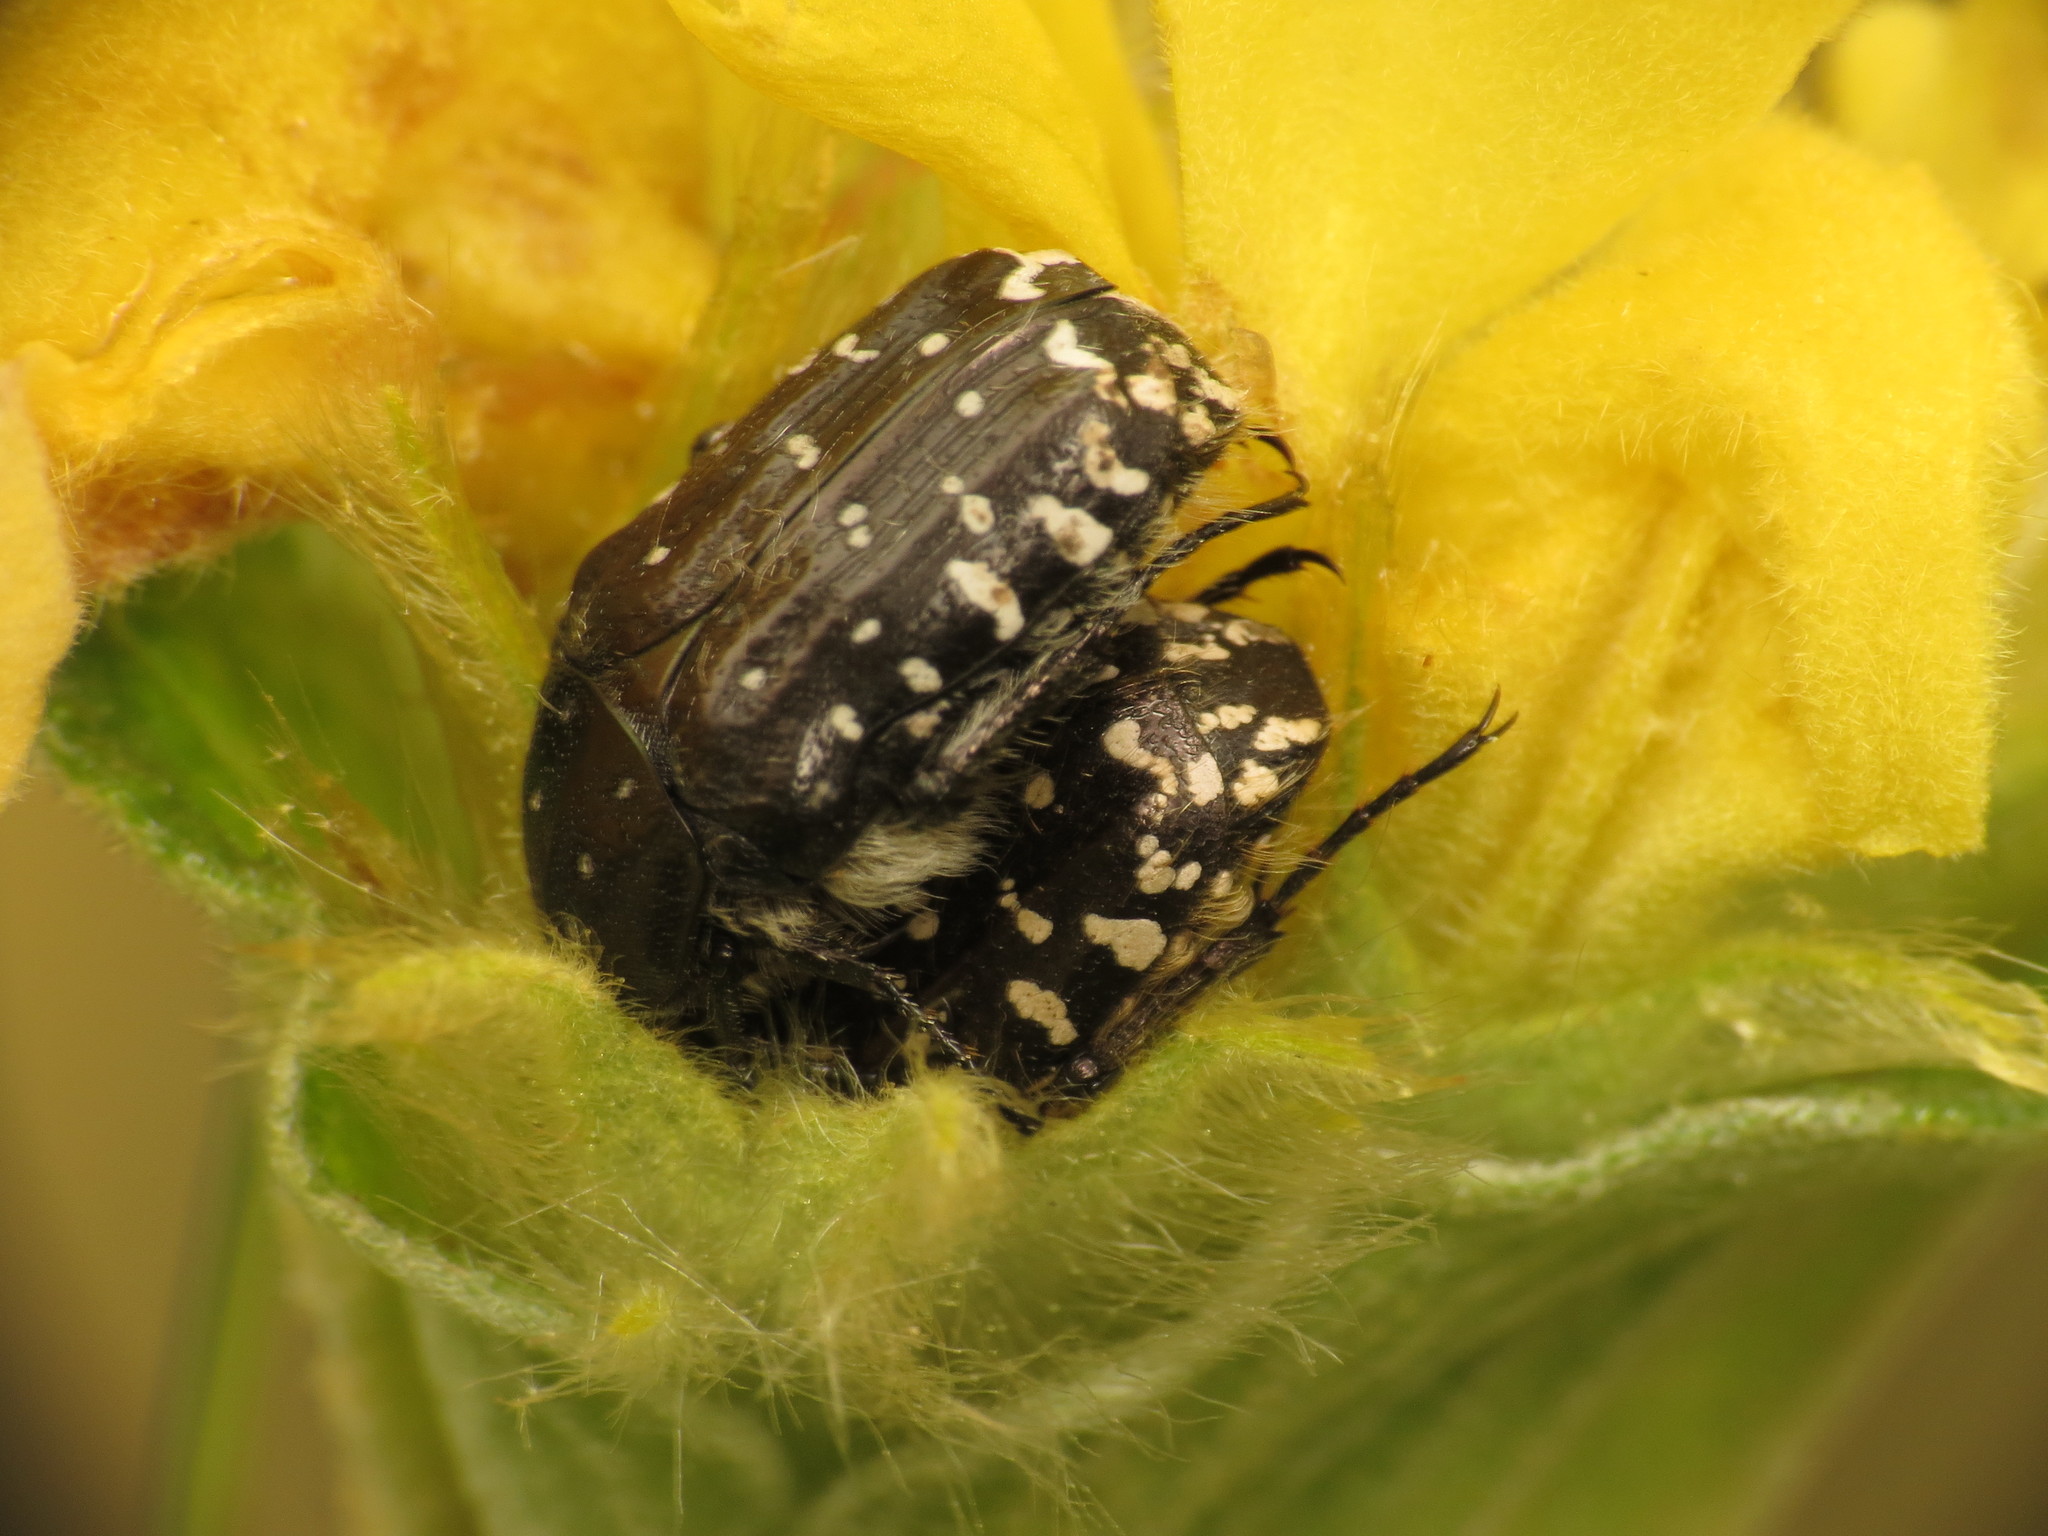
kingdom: Animalia
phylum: Arthropoda
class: Insecta
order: Coleoptera
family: Scarabaeidae
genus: Oxythyrea
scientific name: Oxythyrea funesta
